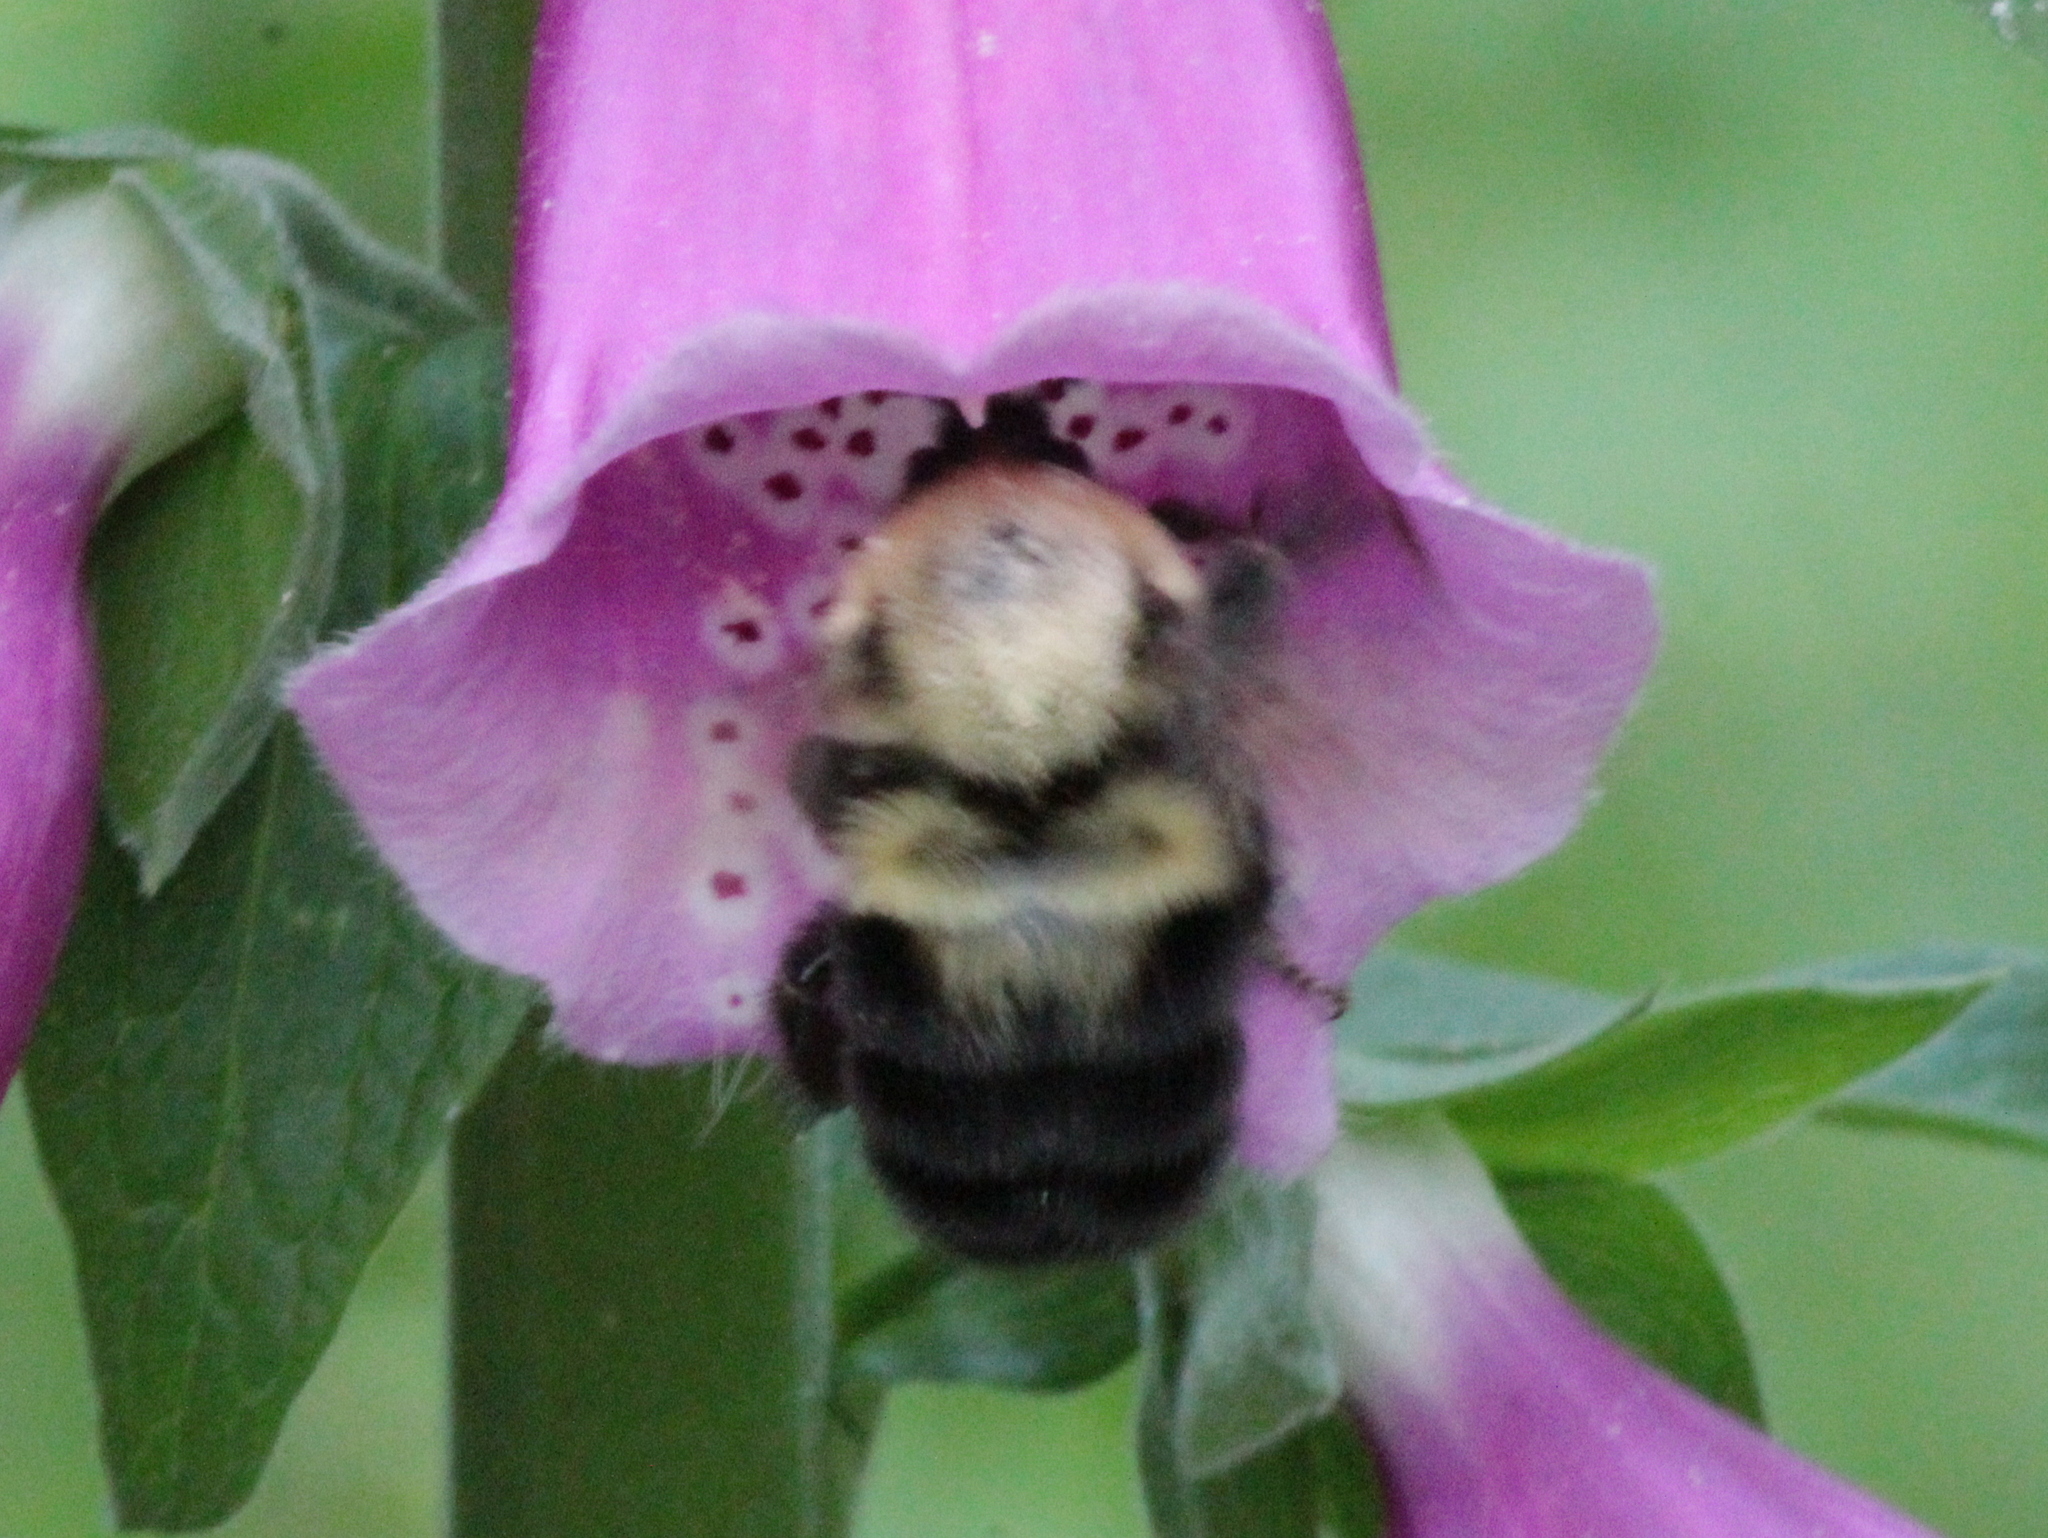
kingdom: Animalia
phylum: Arthropoda
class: Insecta
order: Hymenoptera
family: Apidae
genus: Bombus
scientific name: Bombus bimaculatus
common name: Two-spotted bumble bee
